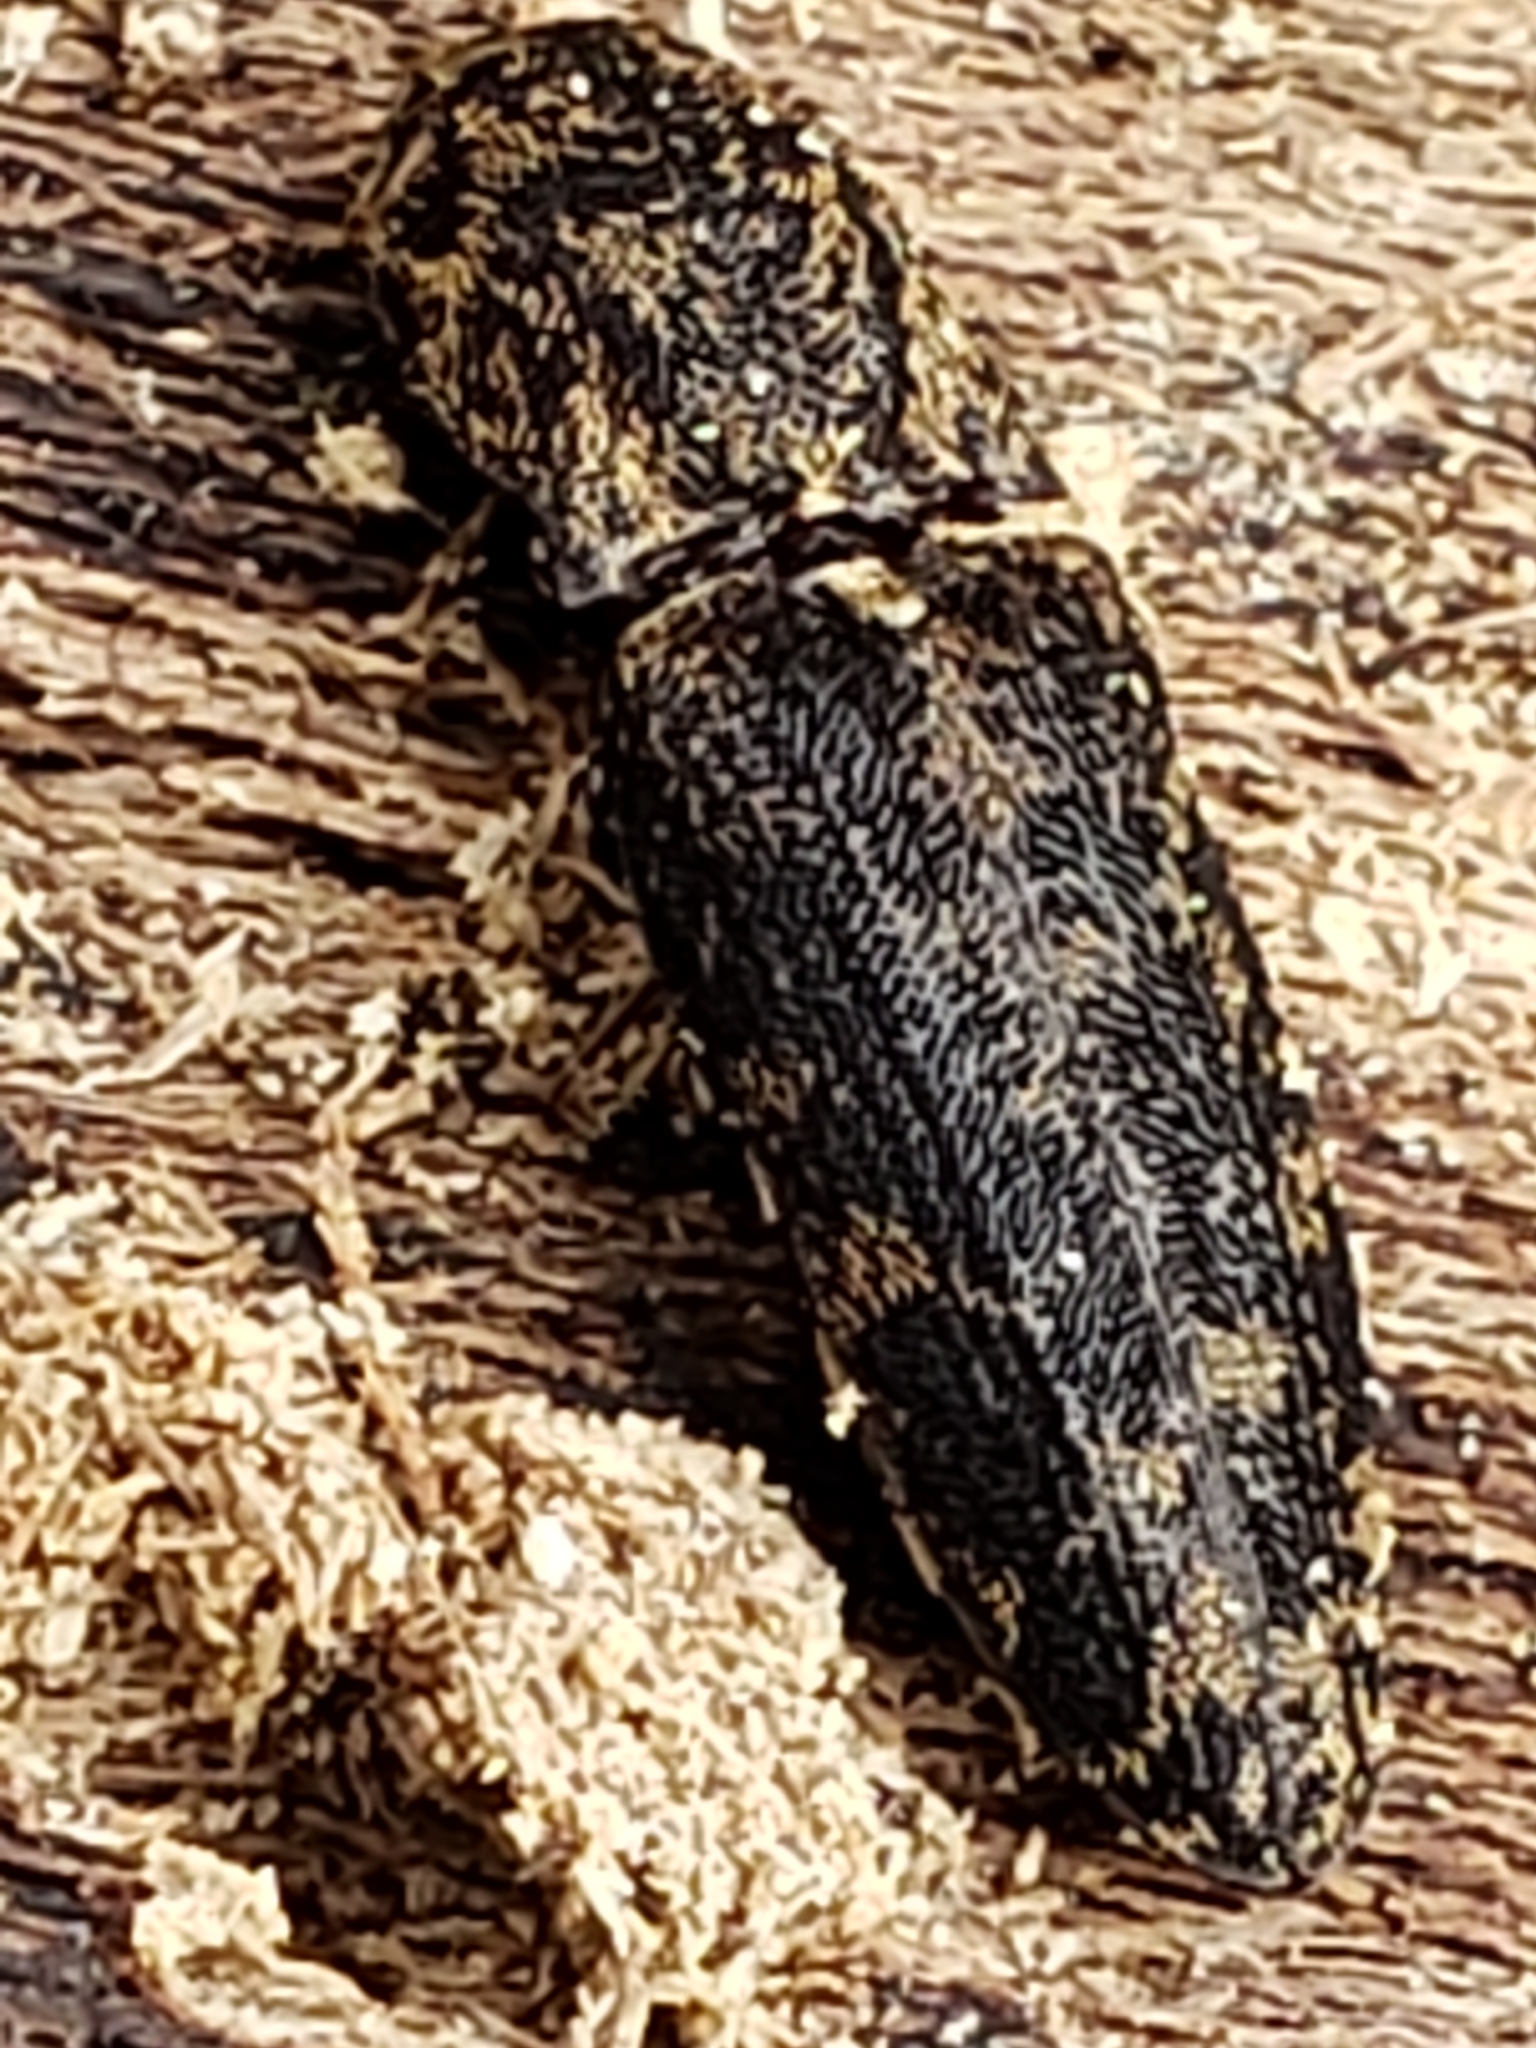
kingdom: Animalia
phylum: Arthropoda
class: Insecta
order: Coleoptera
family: Elateridae
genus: Lacon
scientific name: Lacon marmoratus
